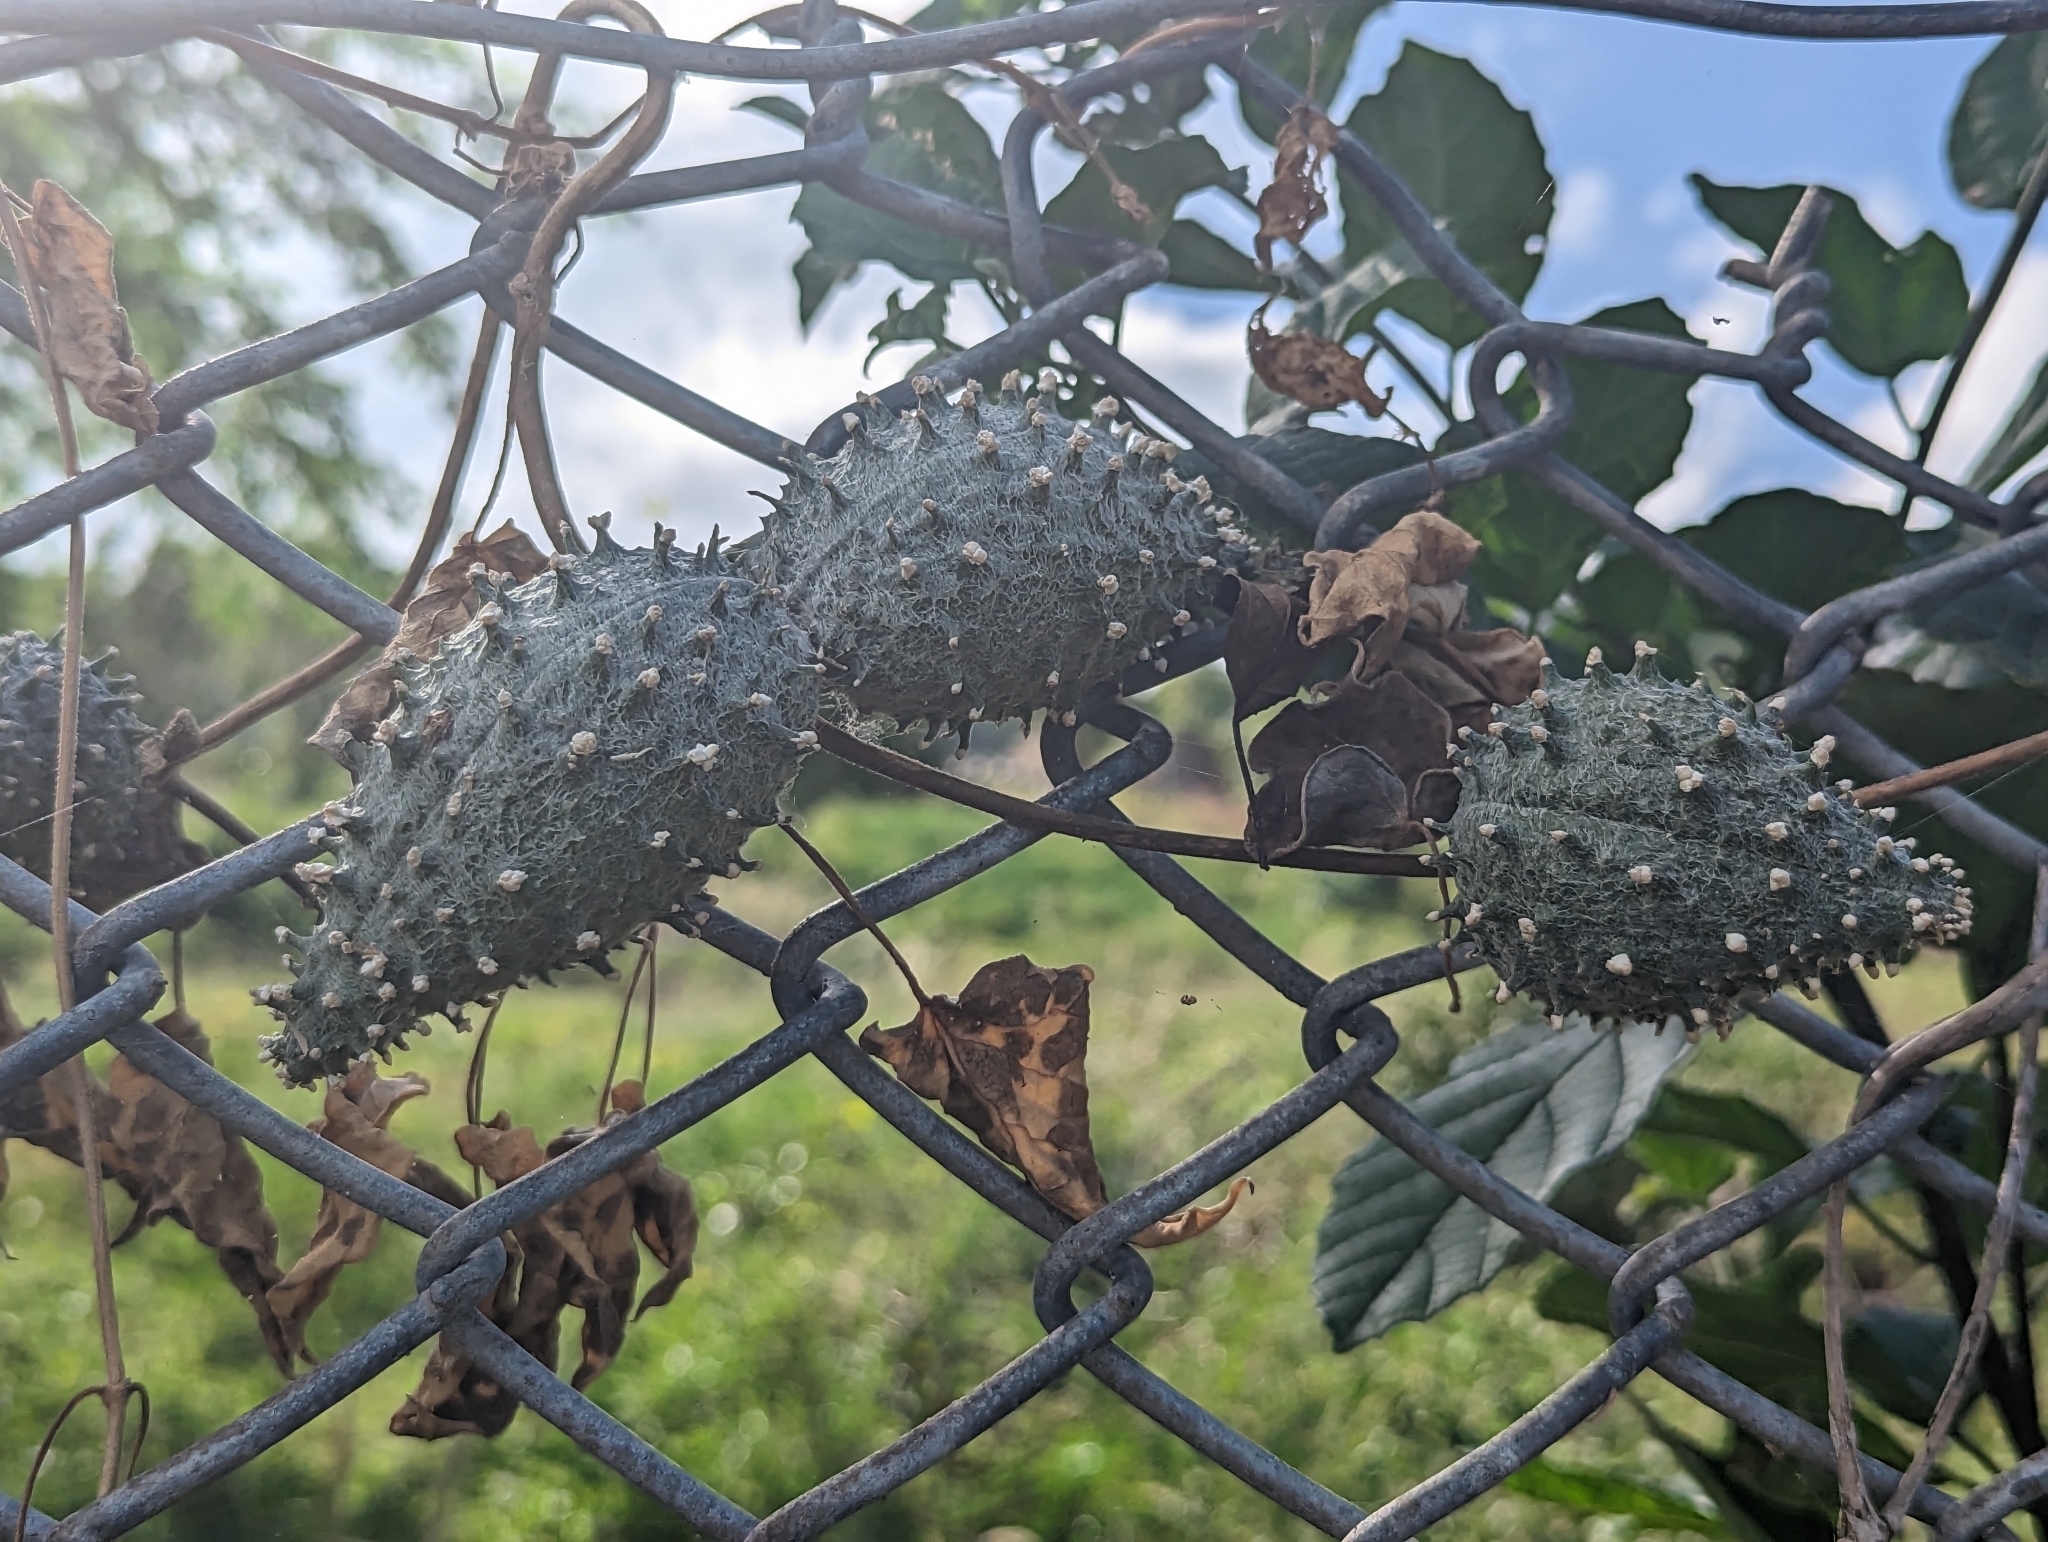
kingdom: Plantae
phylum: Tracheophyta
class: Magnoliopsida
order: Gentianales
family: Apocynaceae
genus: Ibatia
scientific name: Ibatia maritima
